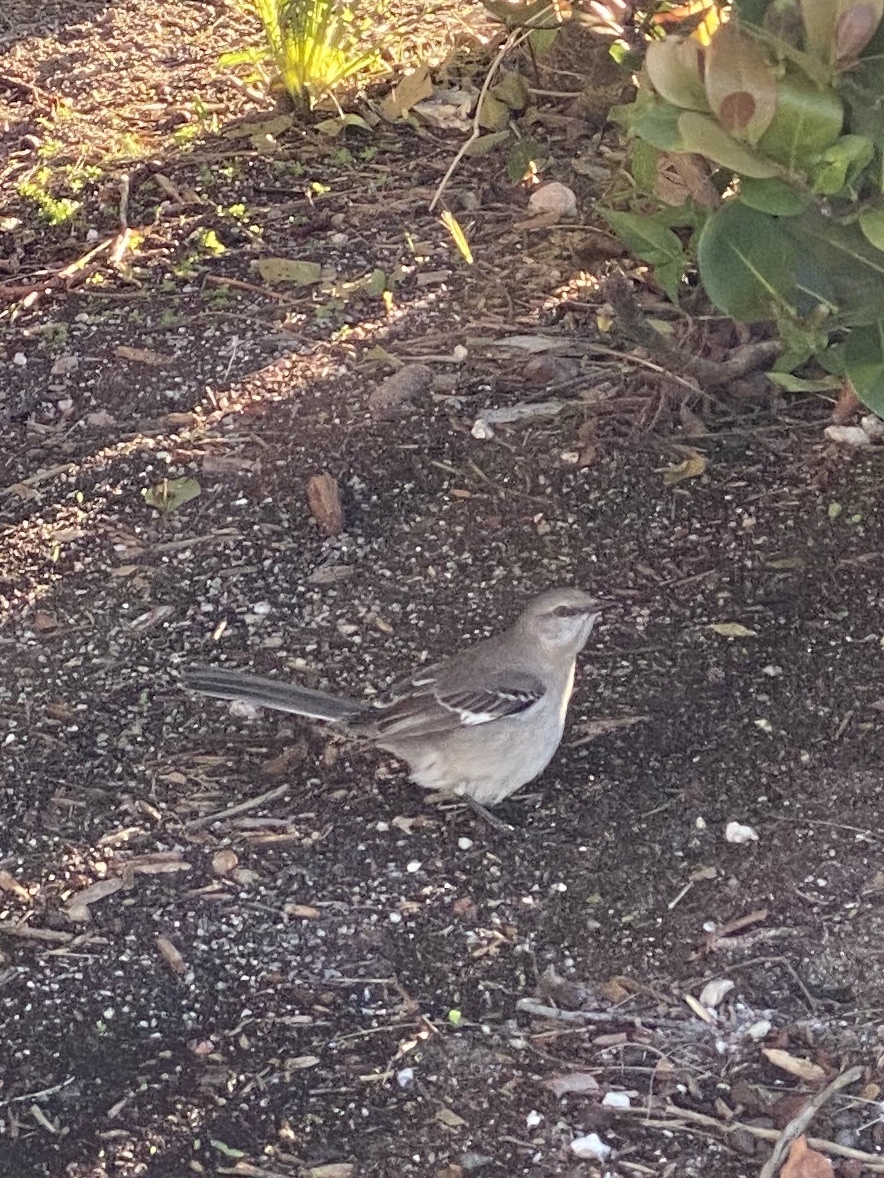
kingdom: Animalia
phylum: Chordata
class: Aves
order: Passeriformes
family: Mimidae
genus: Mimus
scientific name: Mimus polyglottos
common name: Northern mockingbird
